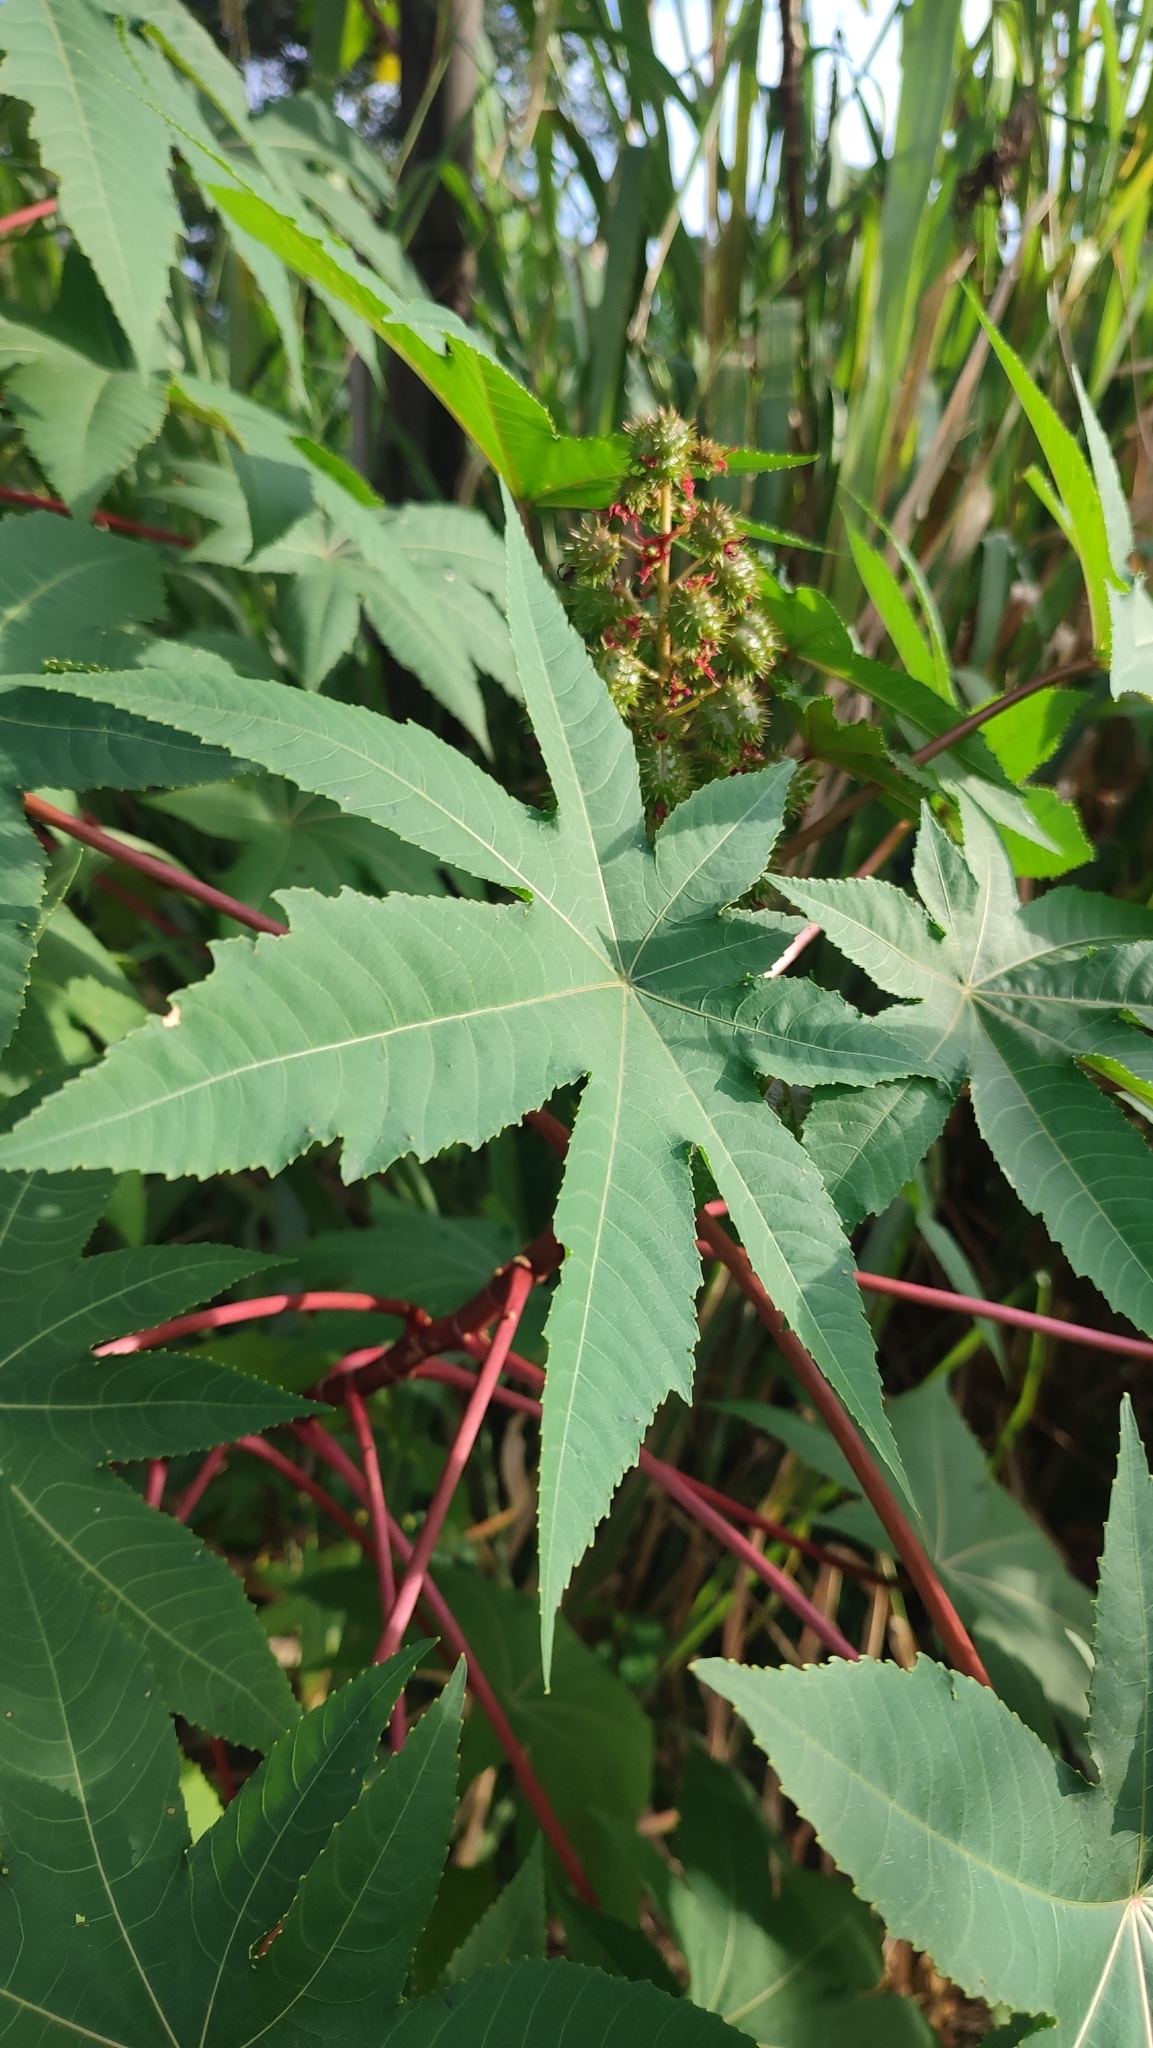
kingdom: Plantae
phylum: Tracheophyta
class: Magnoliopsida
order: Malpighiales
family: Euphorbiaceae
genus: Ricinus
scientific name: Ricinus communis
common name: Castor-oil-plant
